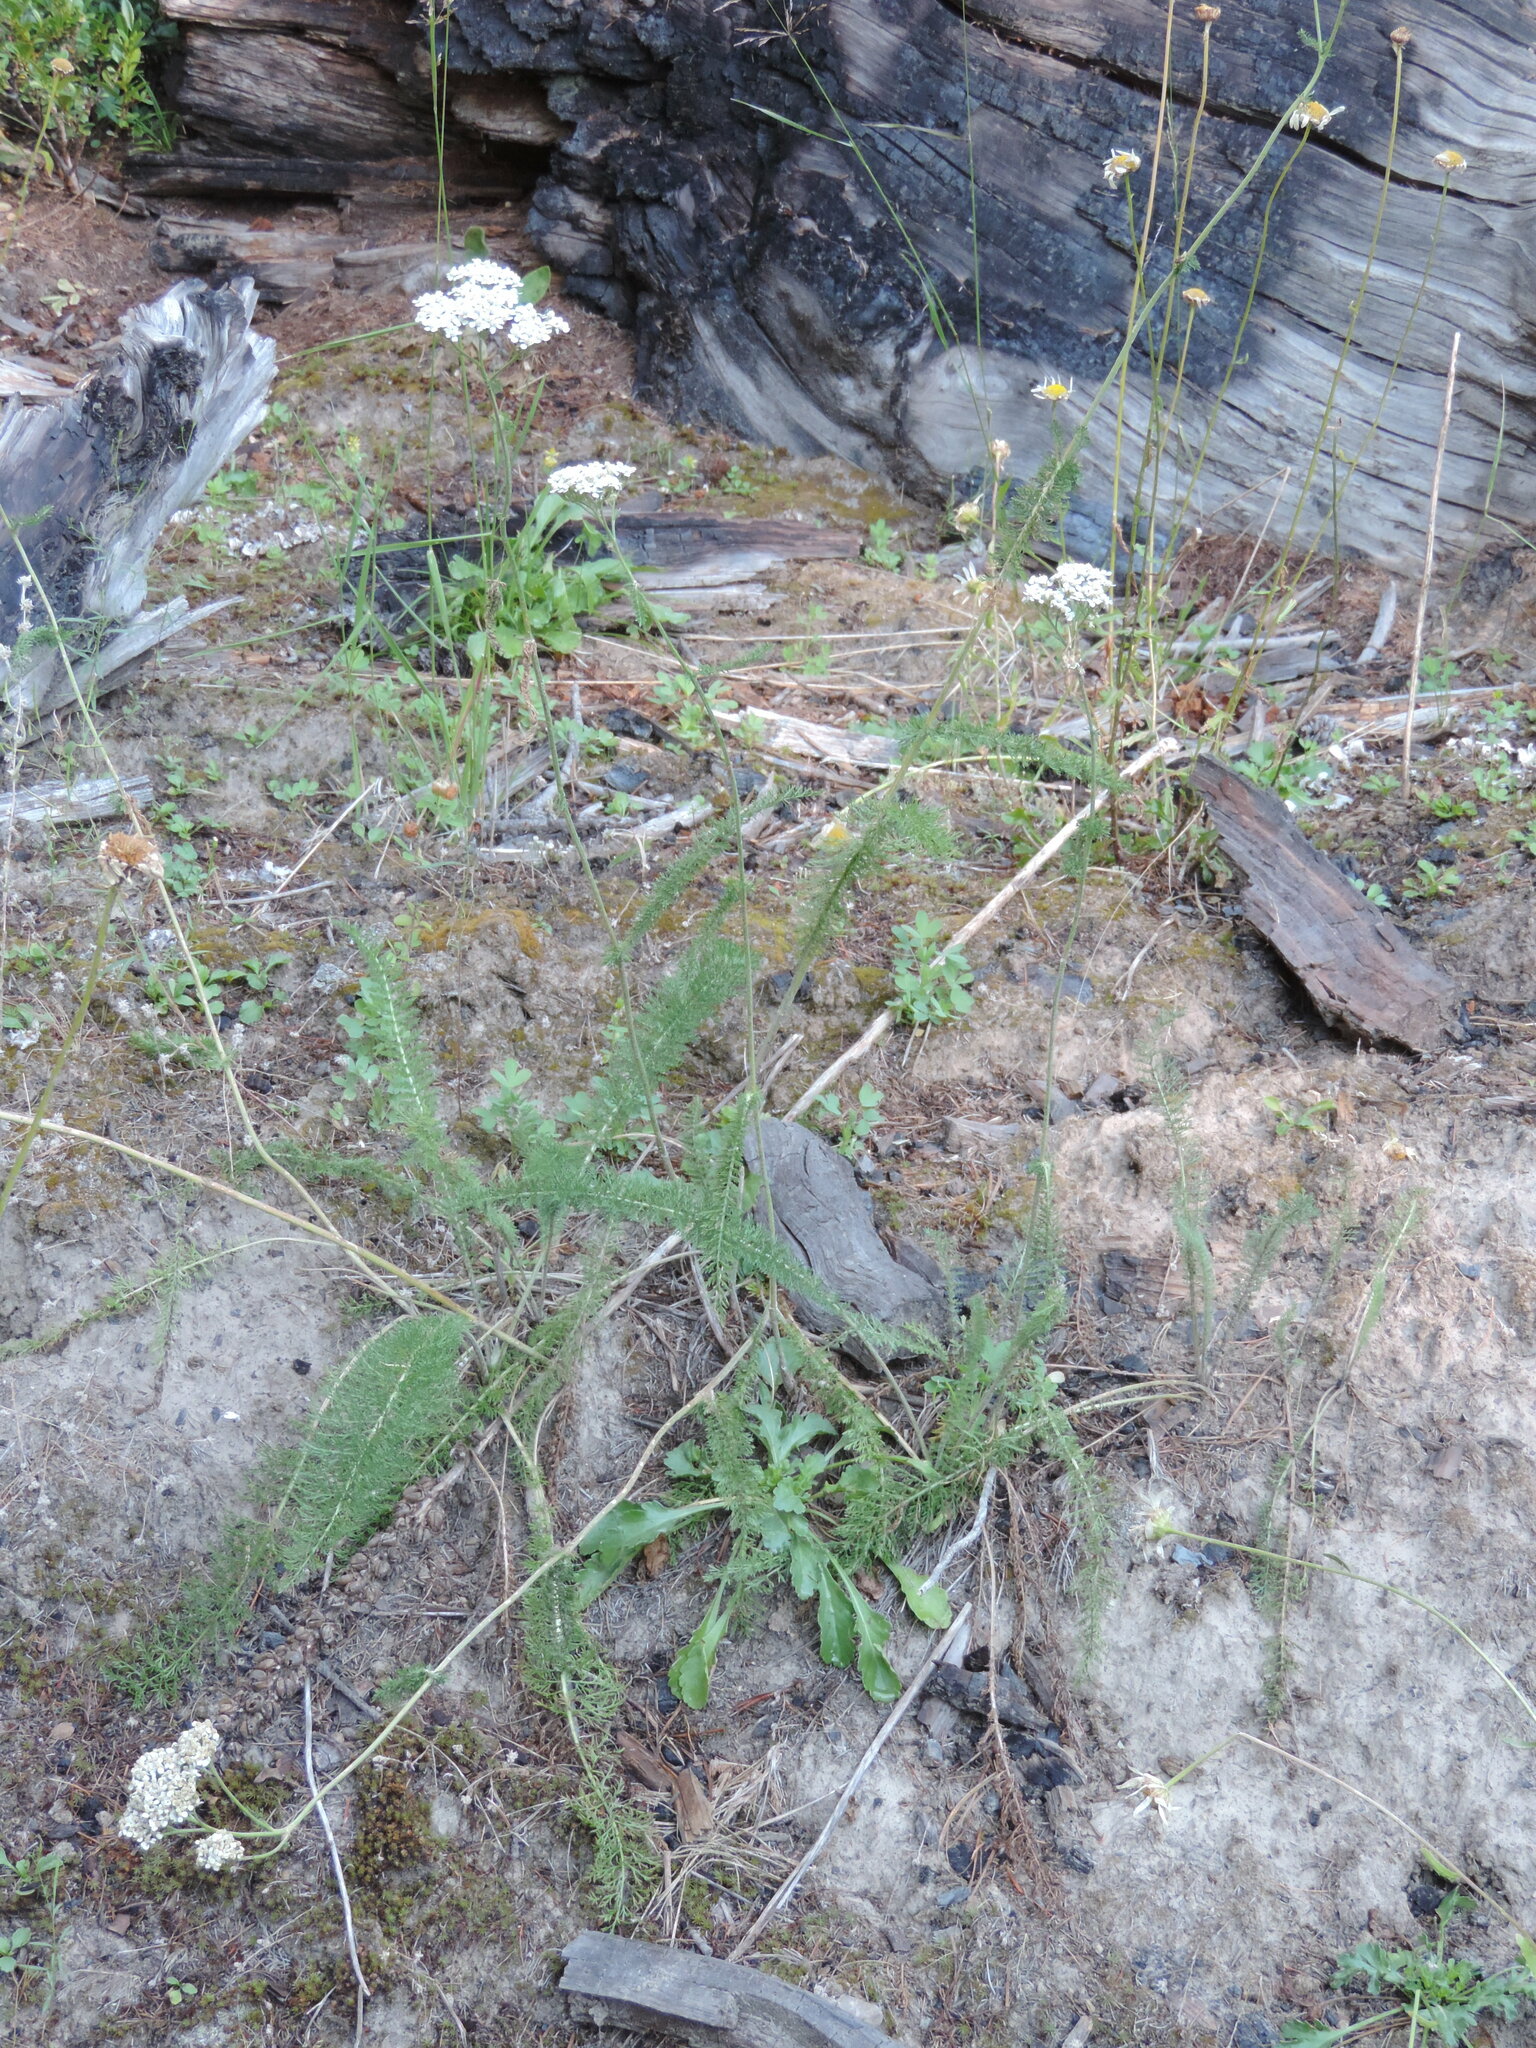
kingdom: Plantae
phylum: Tracheophyta
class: Magnoliopsida
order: Asterales
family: Asteraceae
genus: Achillea
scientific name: Achillea millefolium
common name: Yarrow
